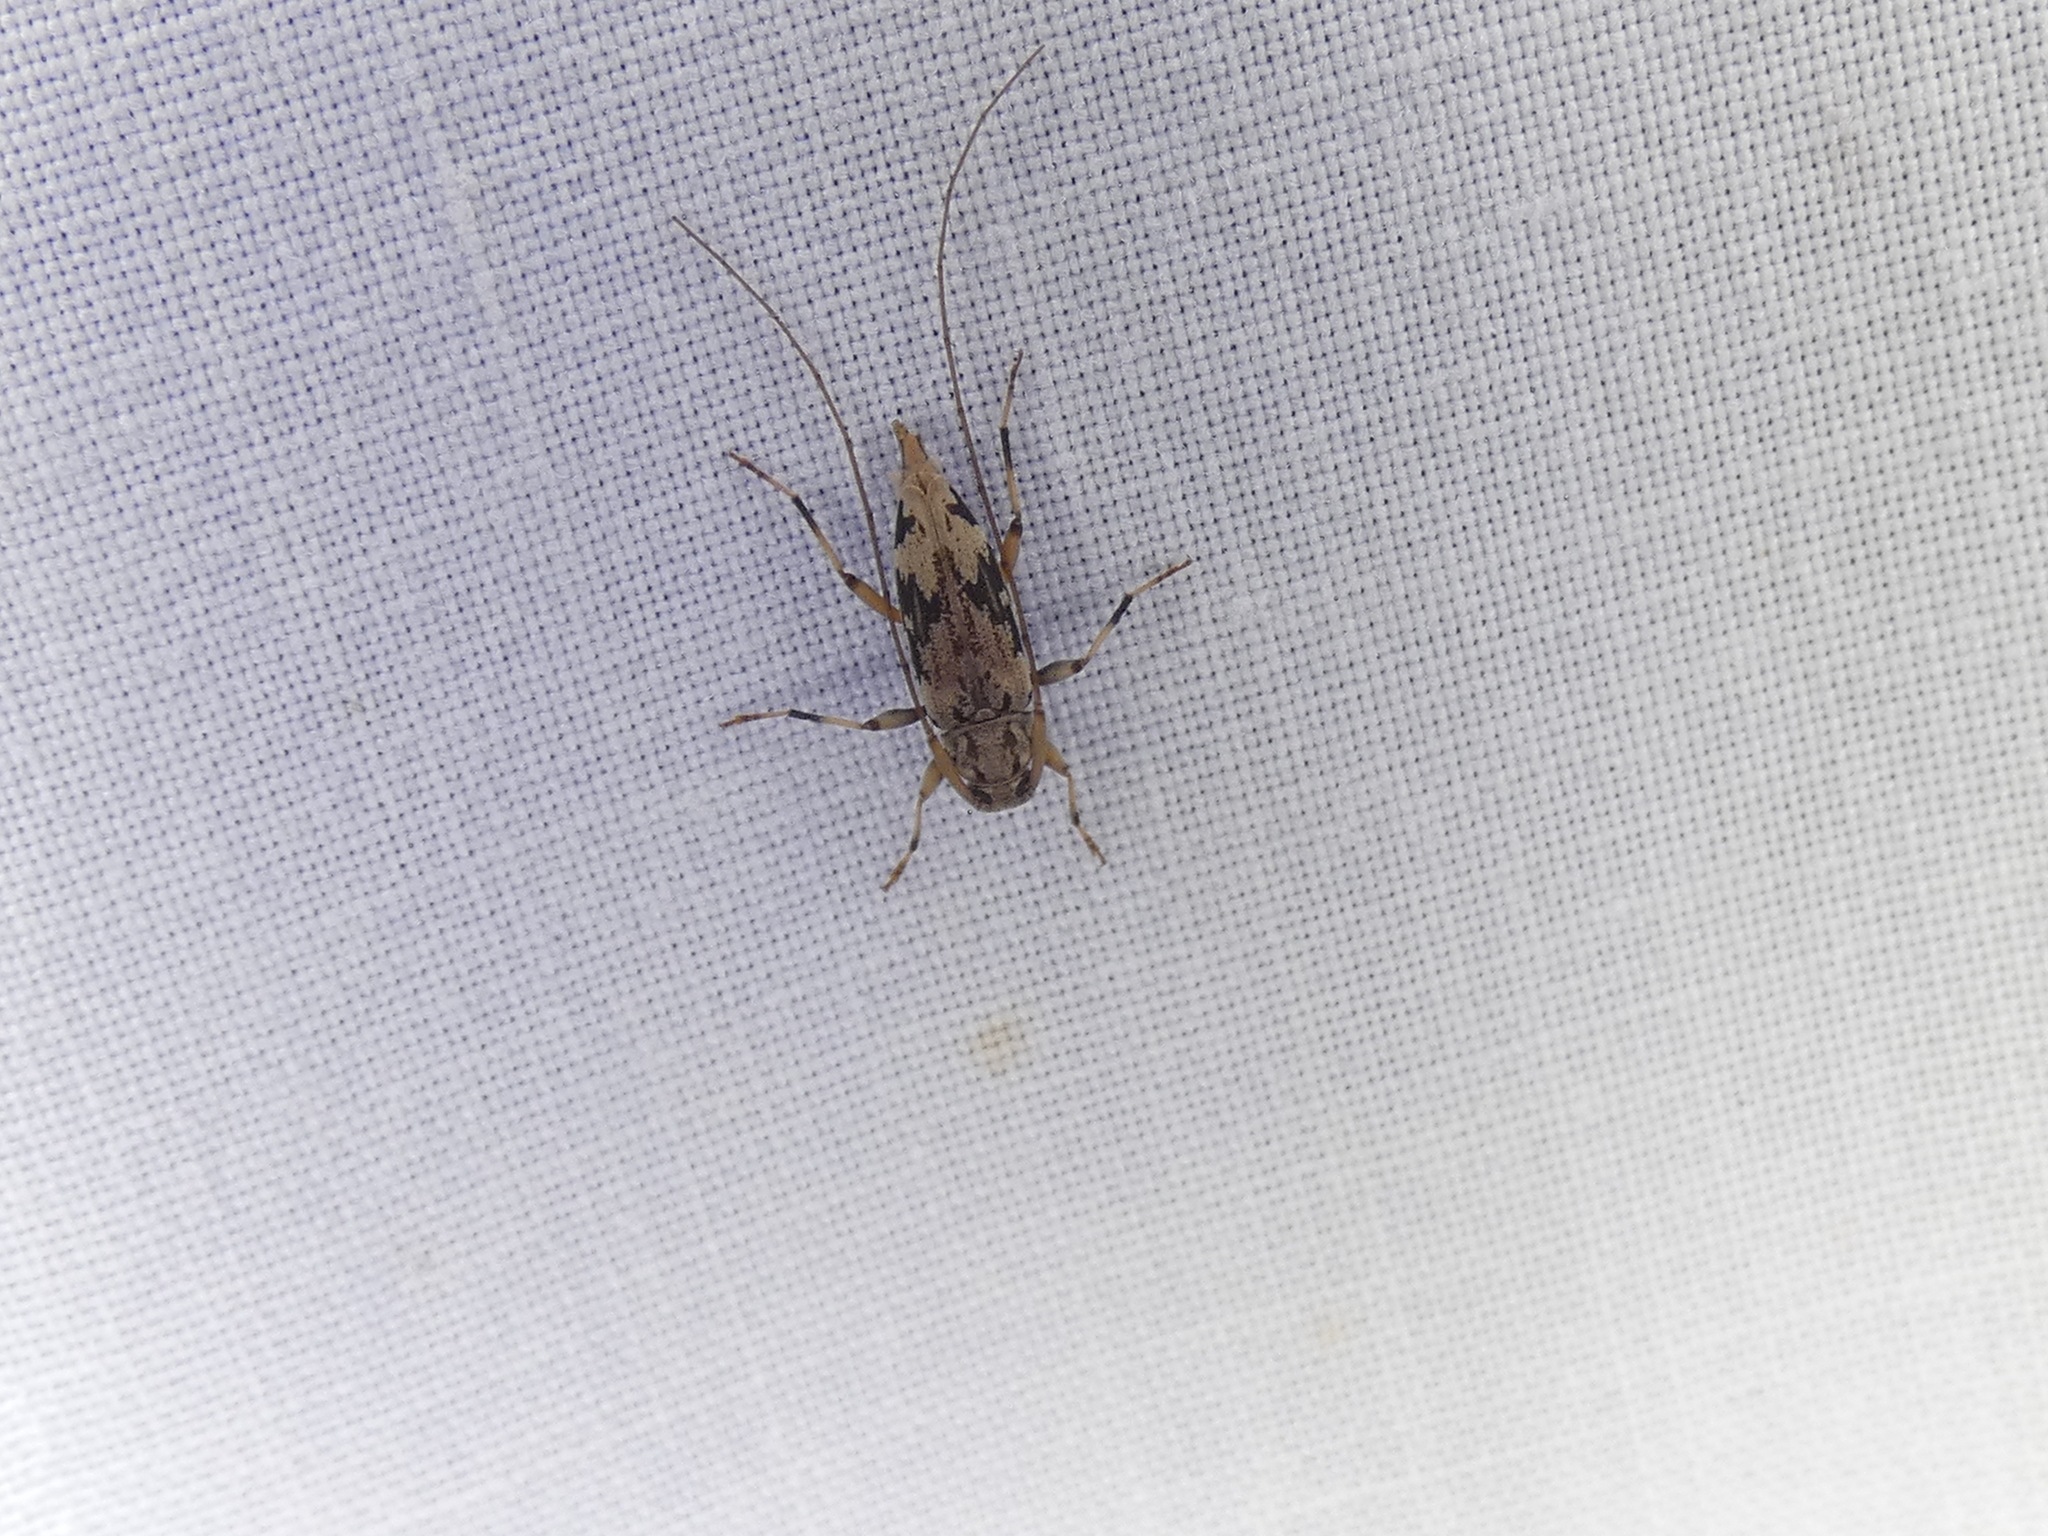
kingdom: Animalia
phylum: Arthropoda
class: Insecta
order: Coleoptera
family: Cerambycidae
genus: Lepturges
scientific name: Lepturges angulatus
